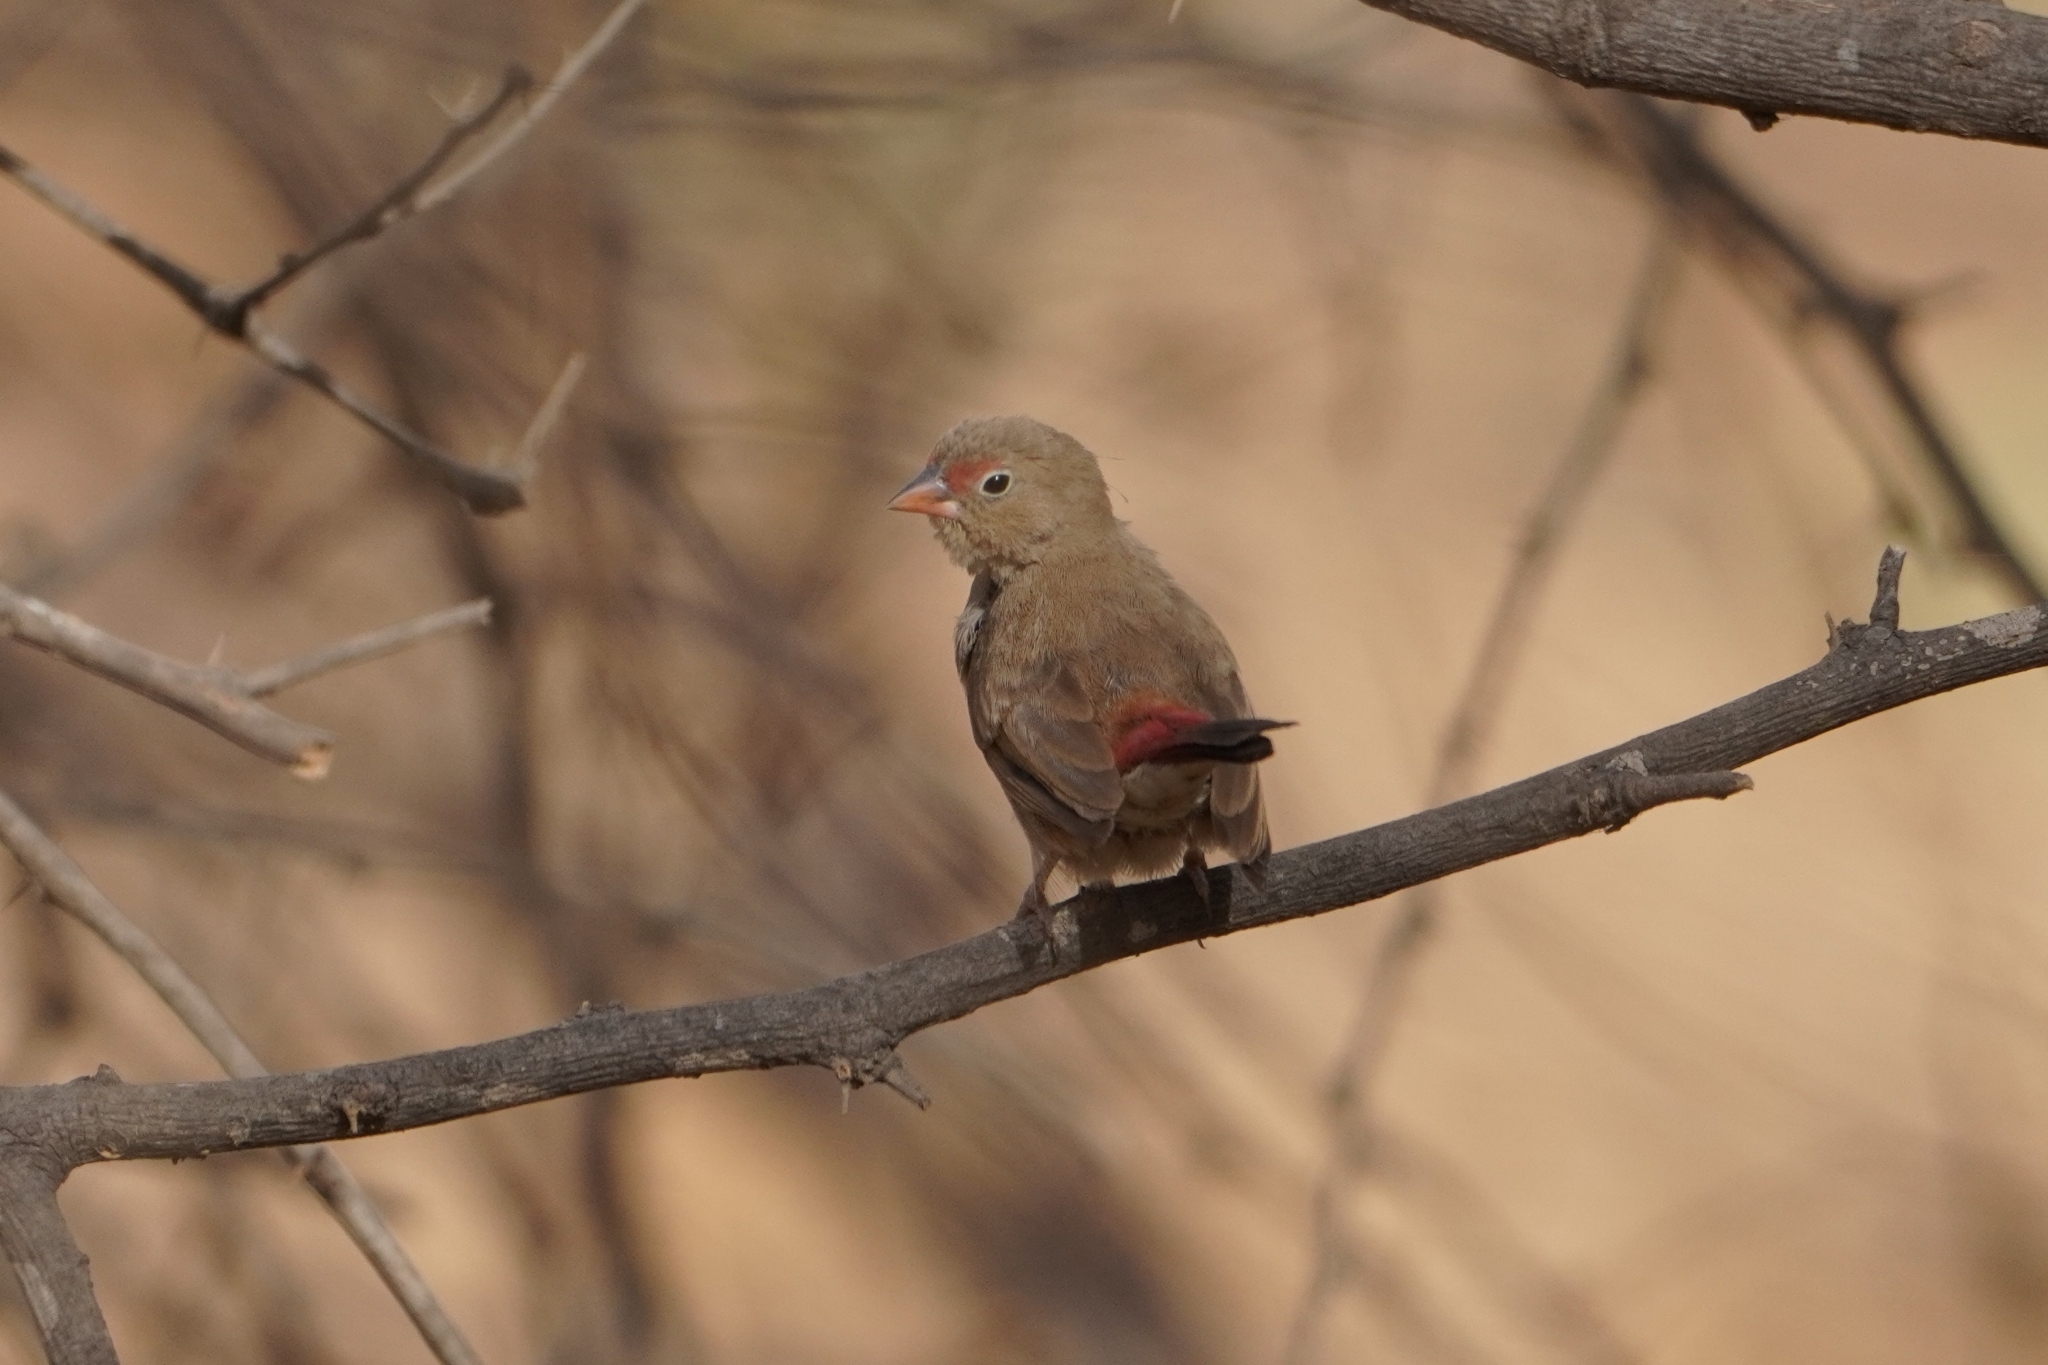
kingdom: Animalia
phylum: Chordata
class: Aves
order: Passeriformes
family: Estrildidae
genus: Lagonosticta
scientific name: Lagonosticta senegala
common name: Red-billed firefinch
